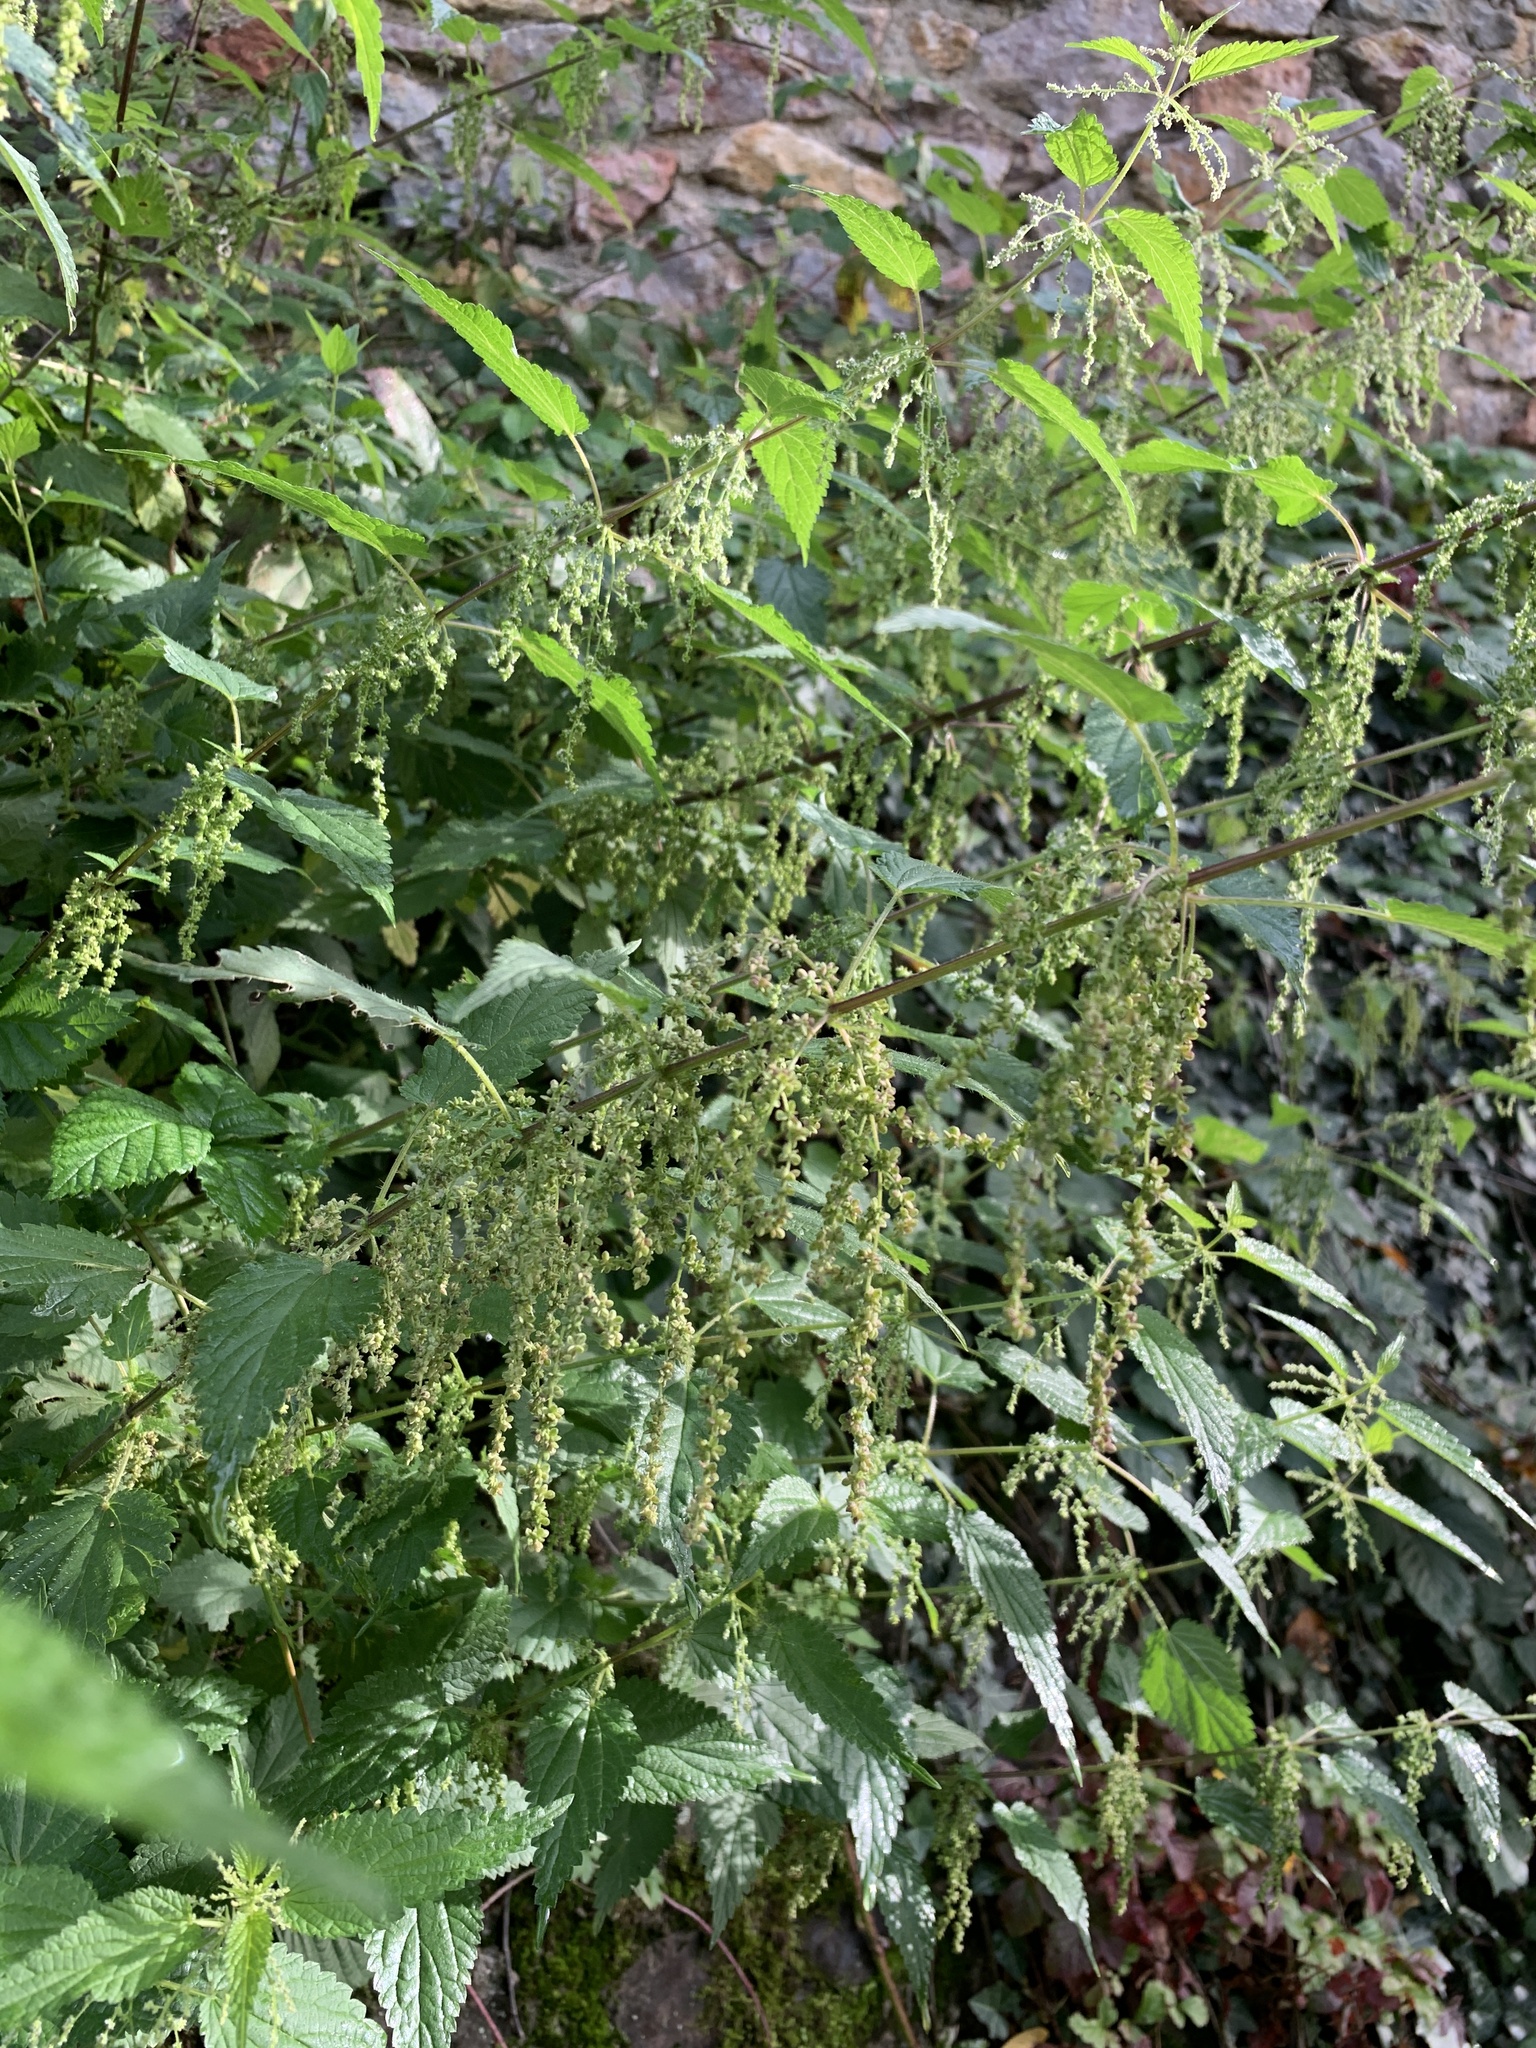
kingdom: Plantae
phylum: Tracheophyta
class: Magnoliopsida
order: Rosales
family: Urticaceae
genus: Urtica
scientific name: Urtica dioica
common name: Common nettle
